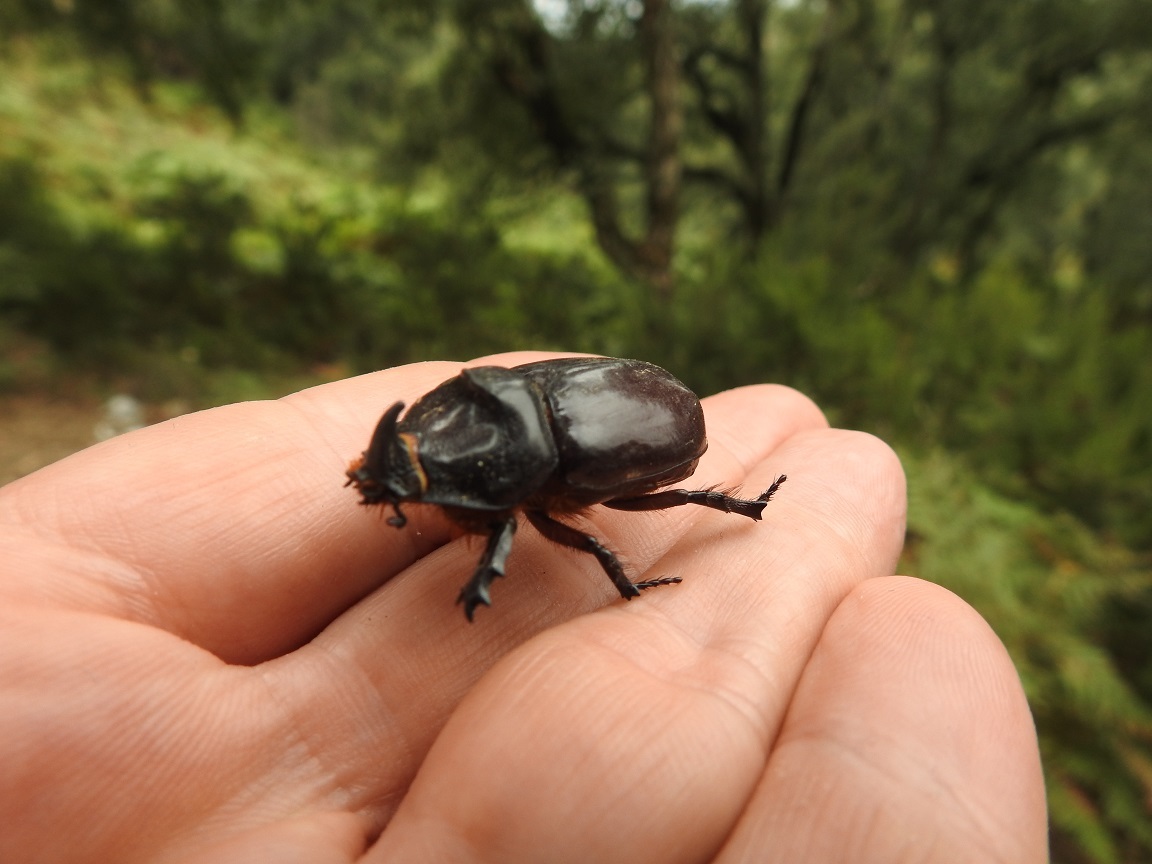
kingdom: Animalia
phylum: Arthropoda
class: Insecta
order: Coleoptera
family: Scarabaeidae
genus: Oryctes
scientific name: Oryctes nasicornis
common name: European rhinoceros beetle
